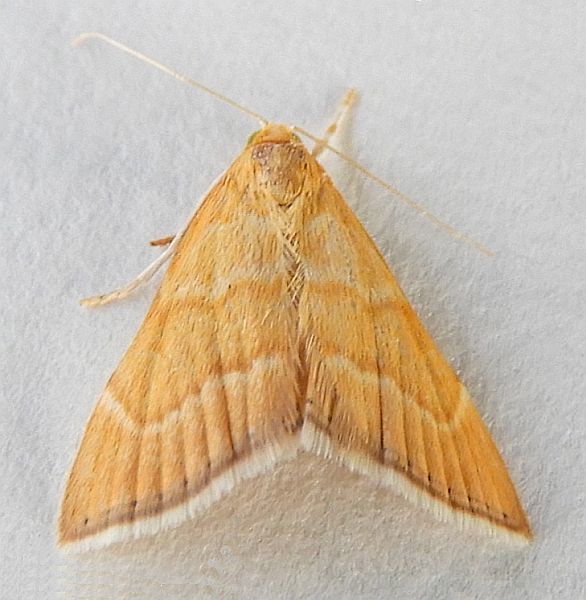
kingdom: Animalia
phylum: Arthropoda
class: Insecta
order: Lepidoptera
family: Crambidae
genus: Glaphyria
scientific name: Glaphyria invisalis
